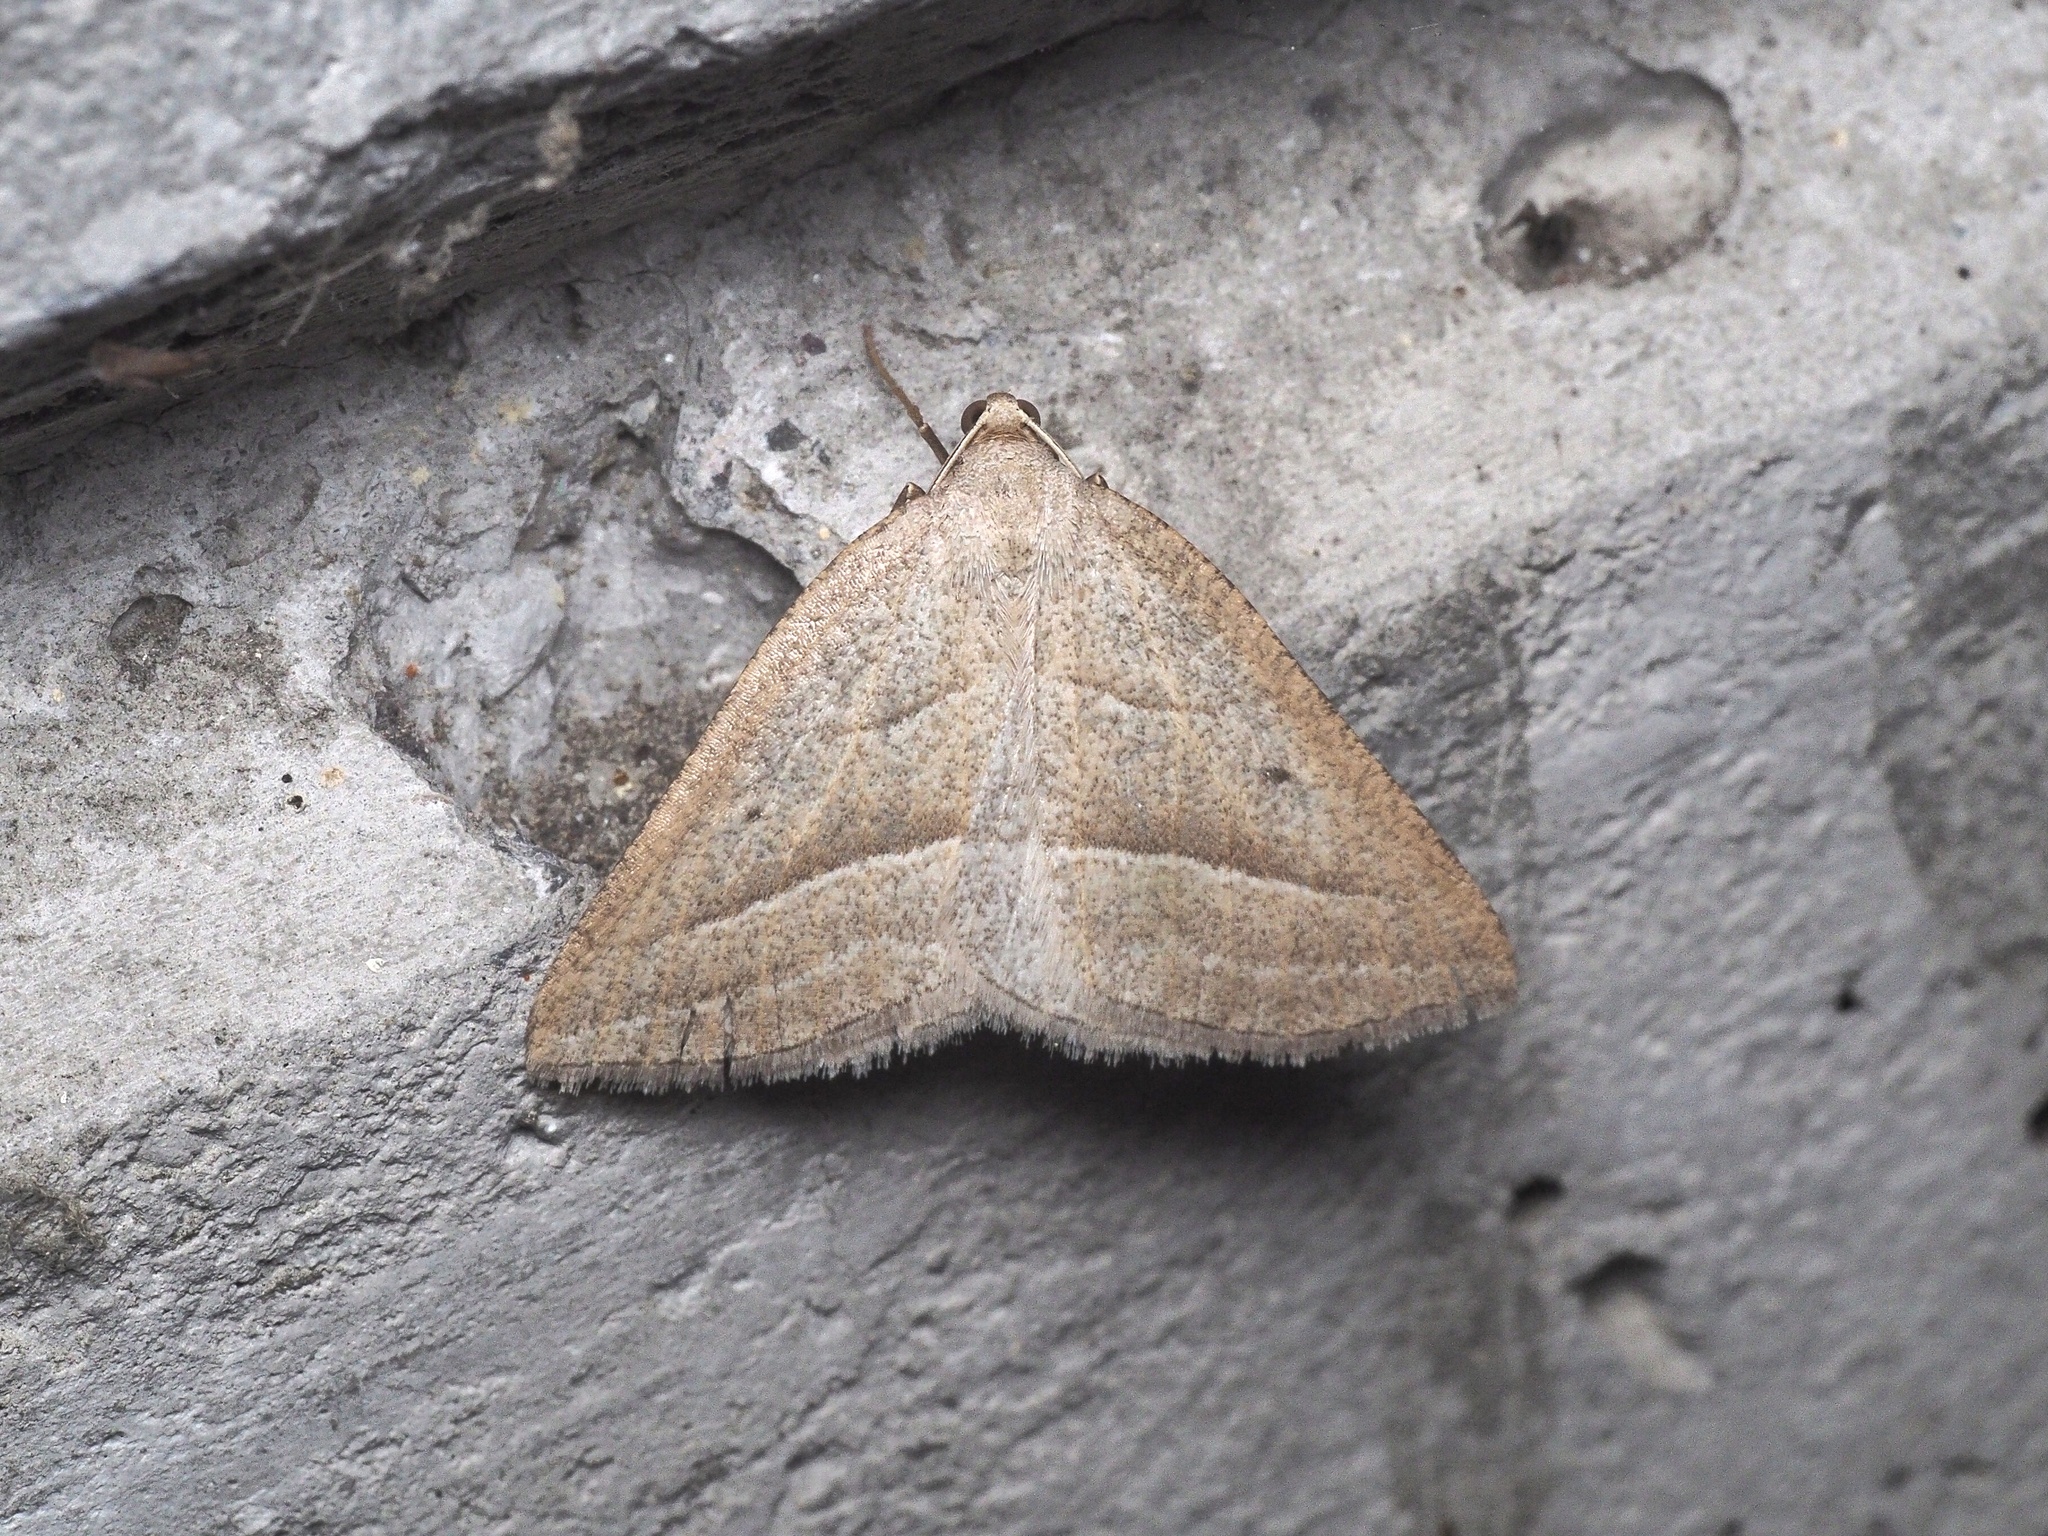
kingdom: Animalia
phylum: Arthropoda
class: Insecta
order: Lepidoptera
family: Pterophoridae
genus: Pterophorus
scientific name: Pterophorus Petrophora chlorosata
